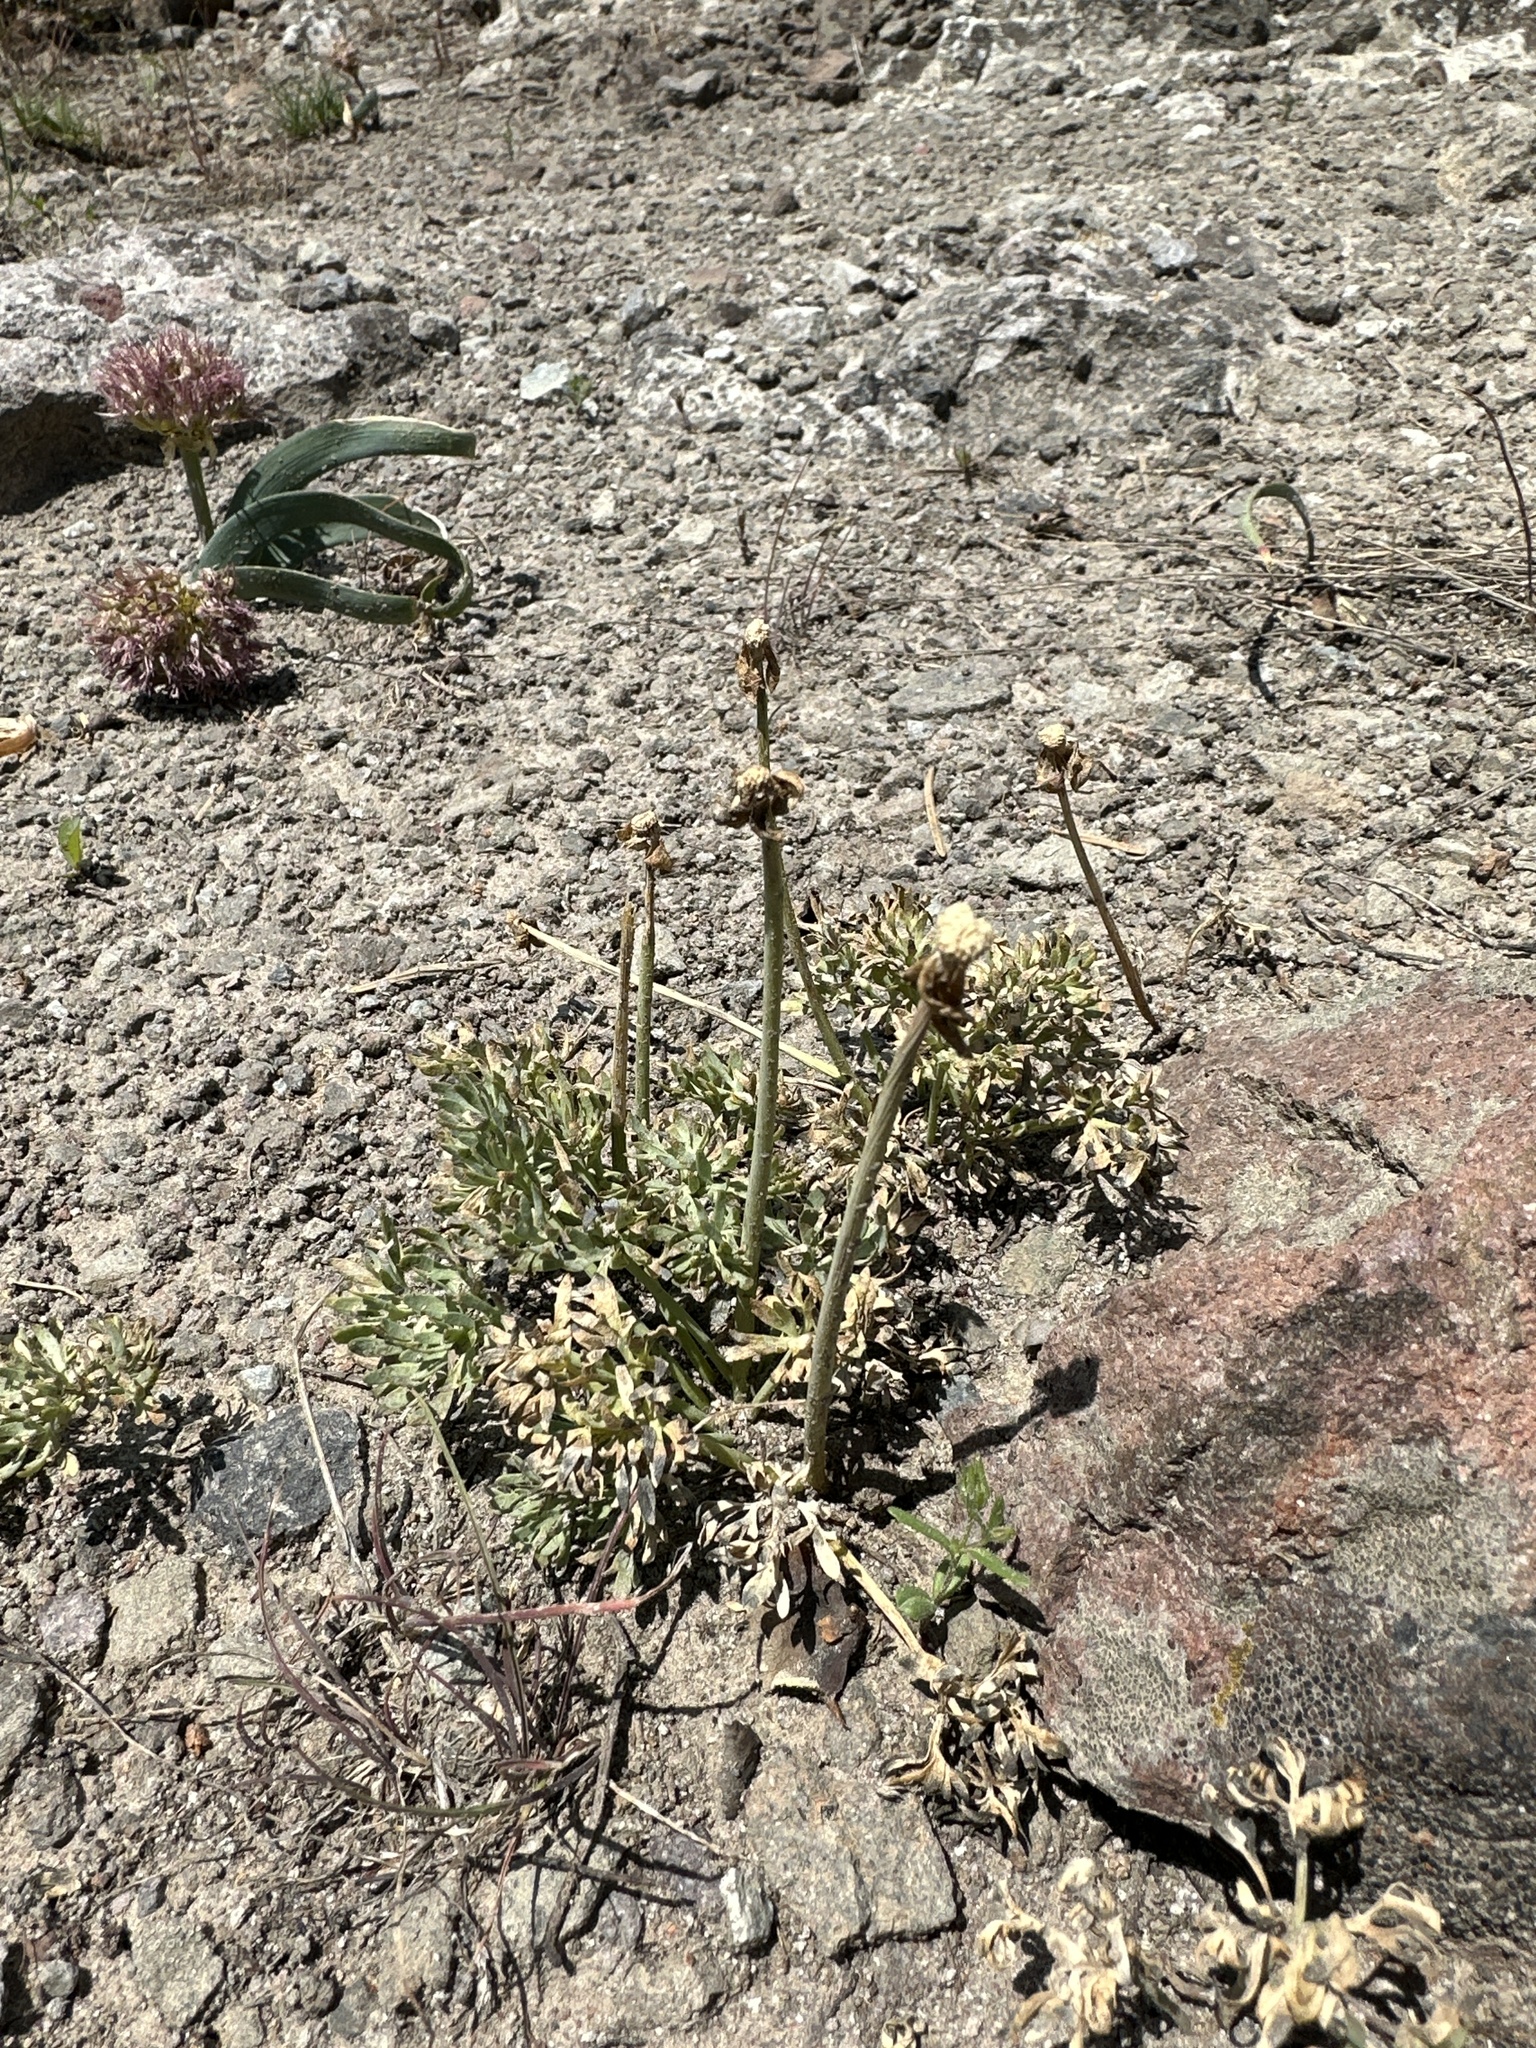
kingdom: Plantae
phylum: Tracheophyta
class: Magnoliopsida
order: Ranunculales
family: Ranunculaceae
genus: Beckwithia
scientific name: Beckwithia andersonii
